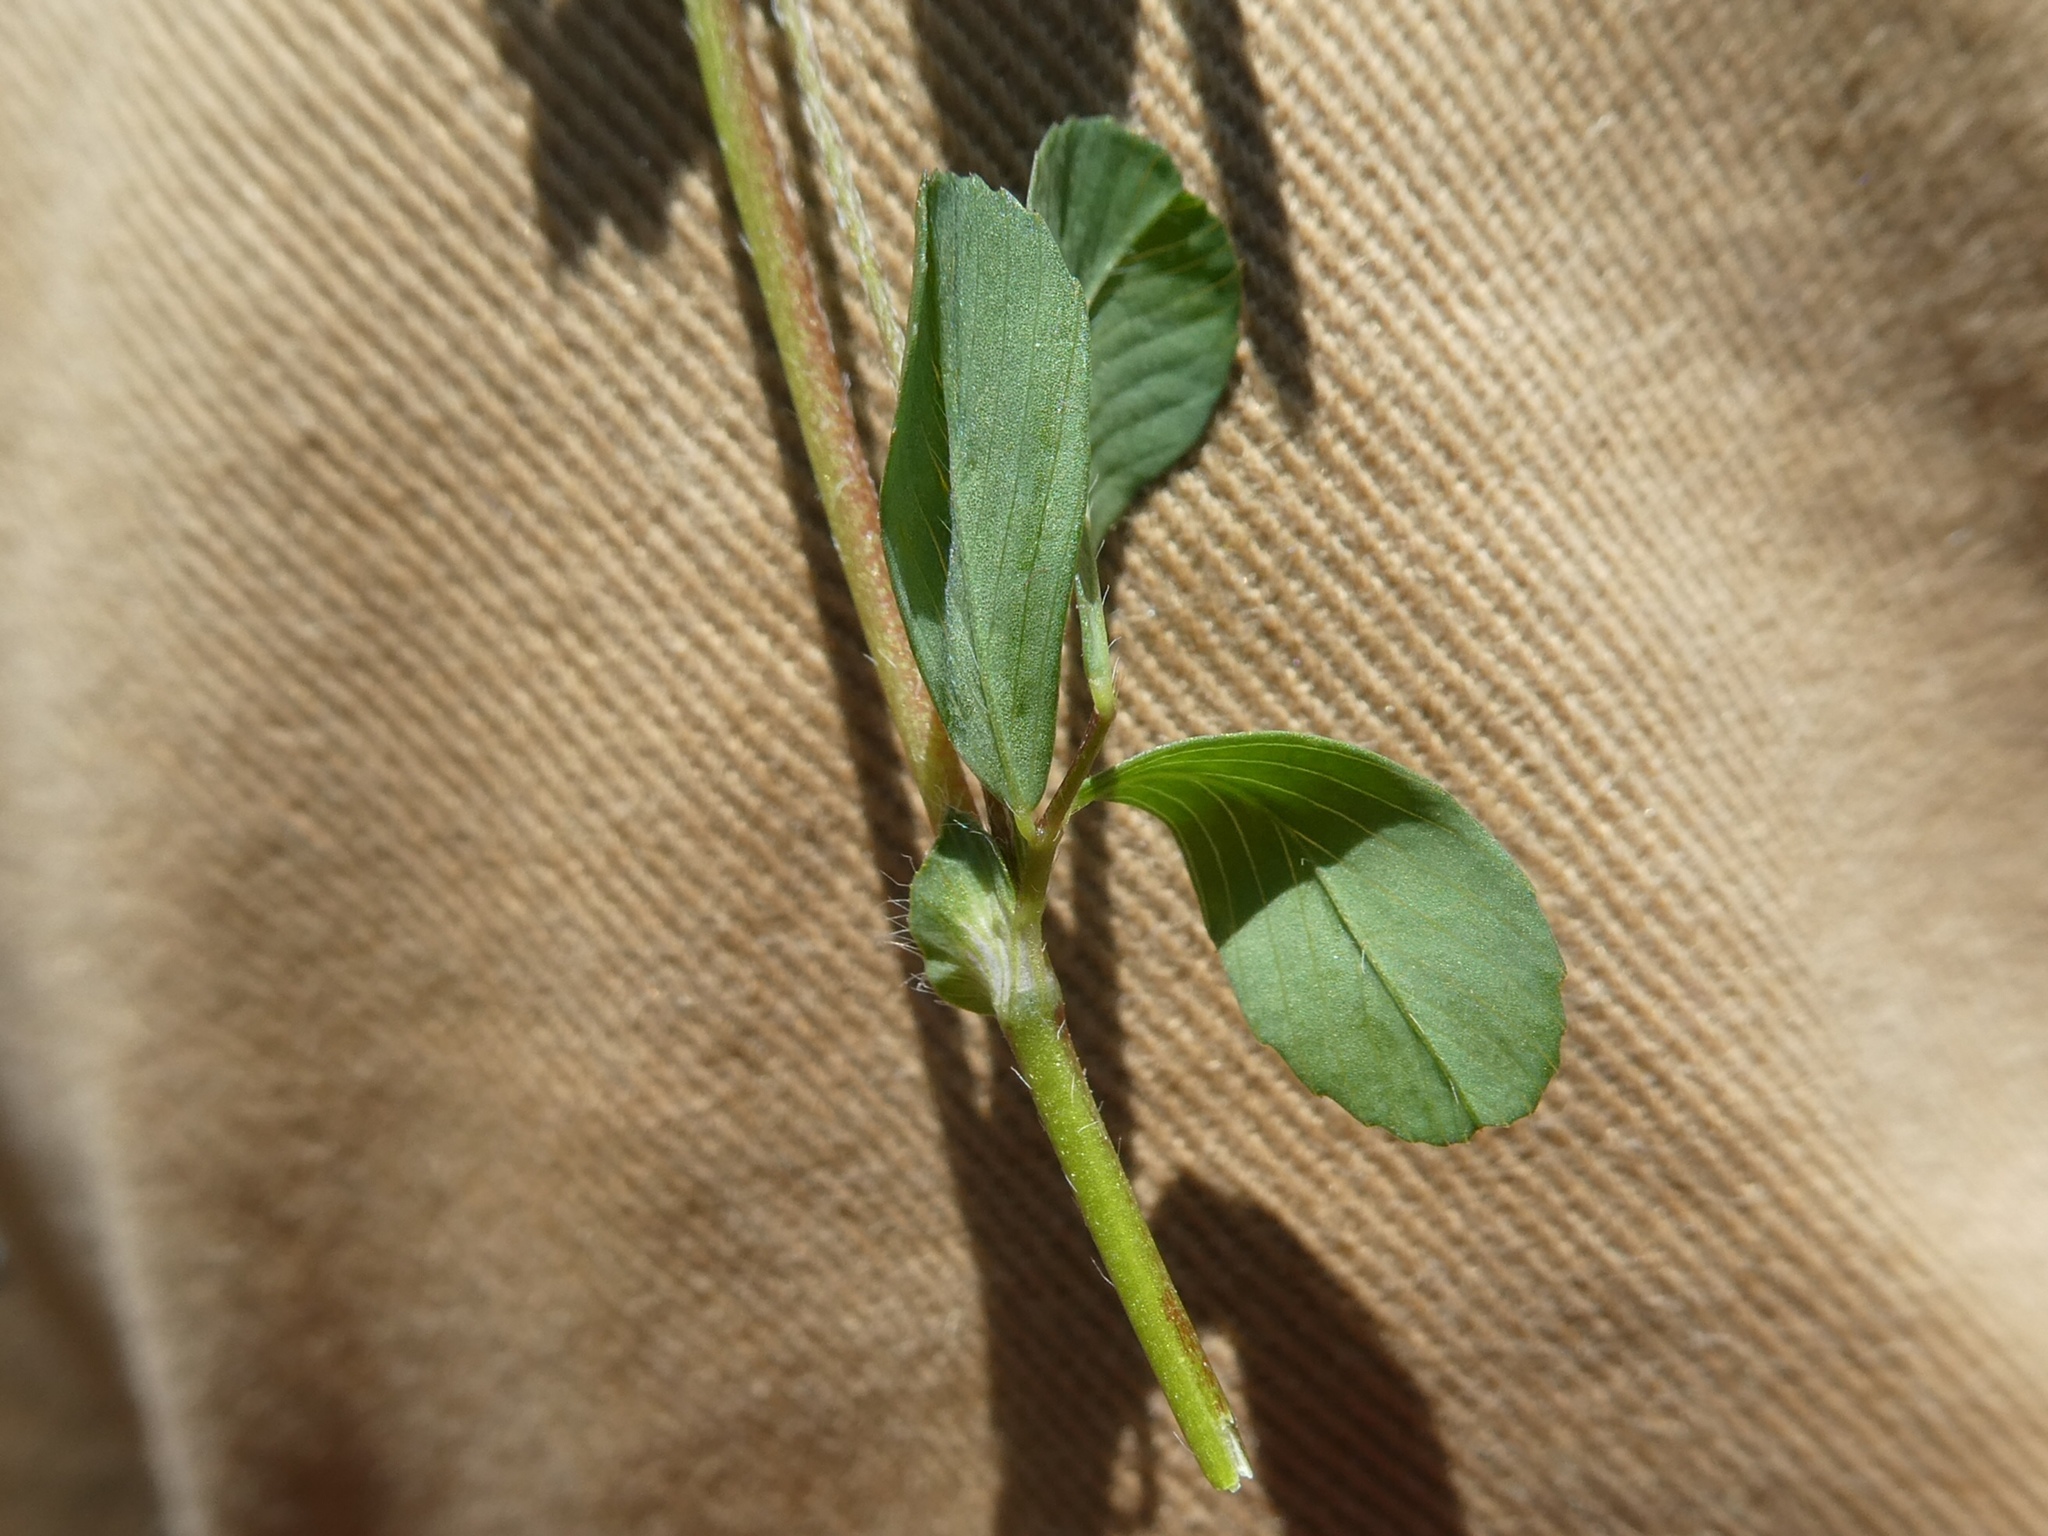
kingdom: Plantae
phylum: Tracheophyta
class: Magnoliopsida
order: Fabales
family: Fabaceae
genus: Trifolium
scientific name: Trifolium dubium
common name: Suckling clover
